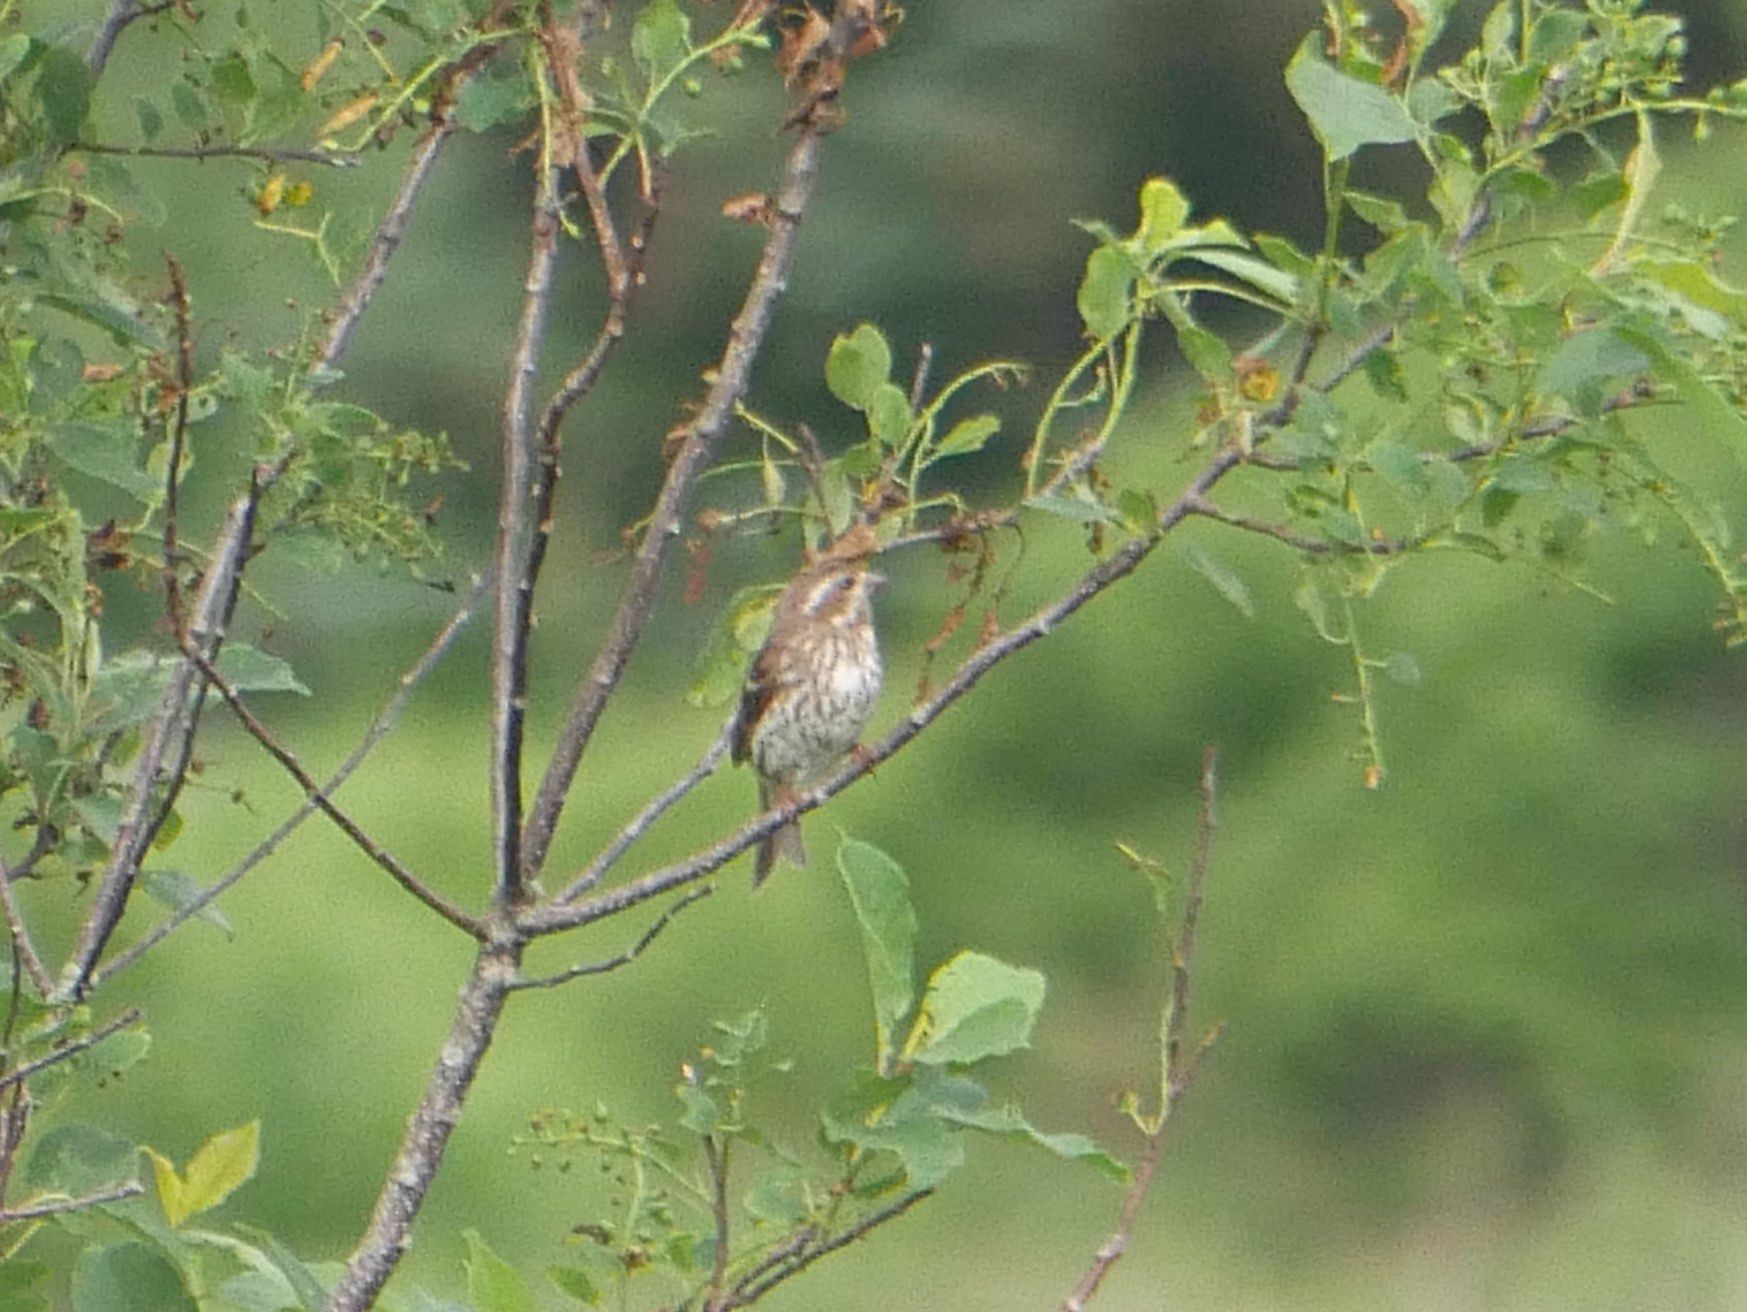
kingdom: Animalia
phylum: Chordata
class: Aves
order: Passeriformes
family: Fringillidae
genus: Haemorhous
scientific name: Haemorhous purpureus
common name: Purple finch
